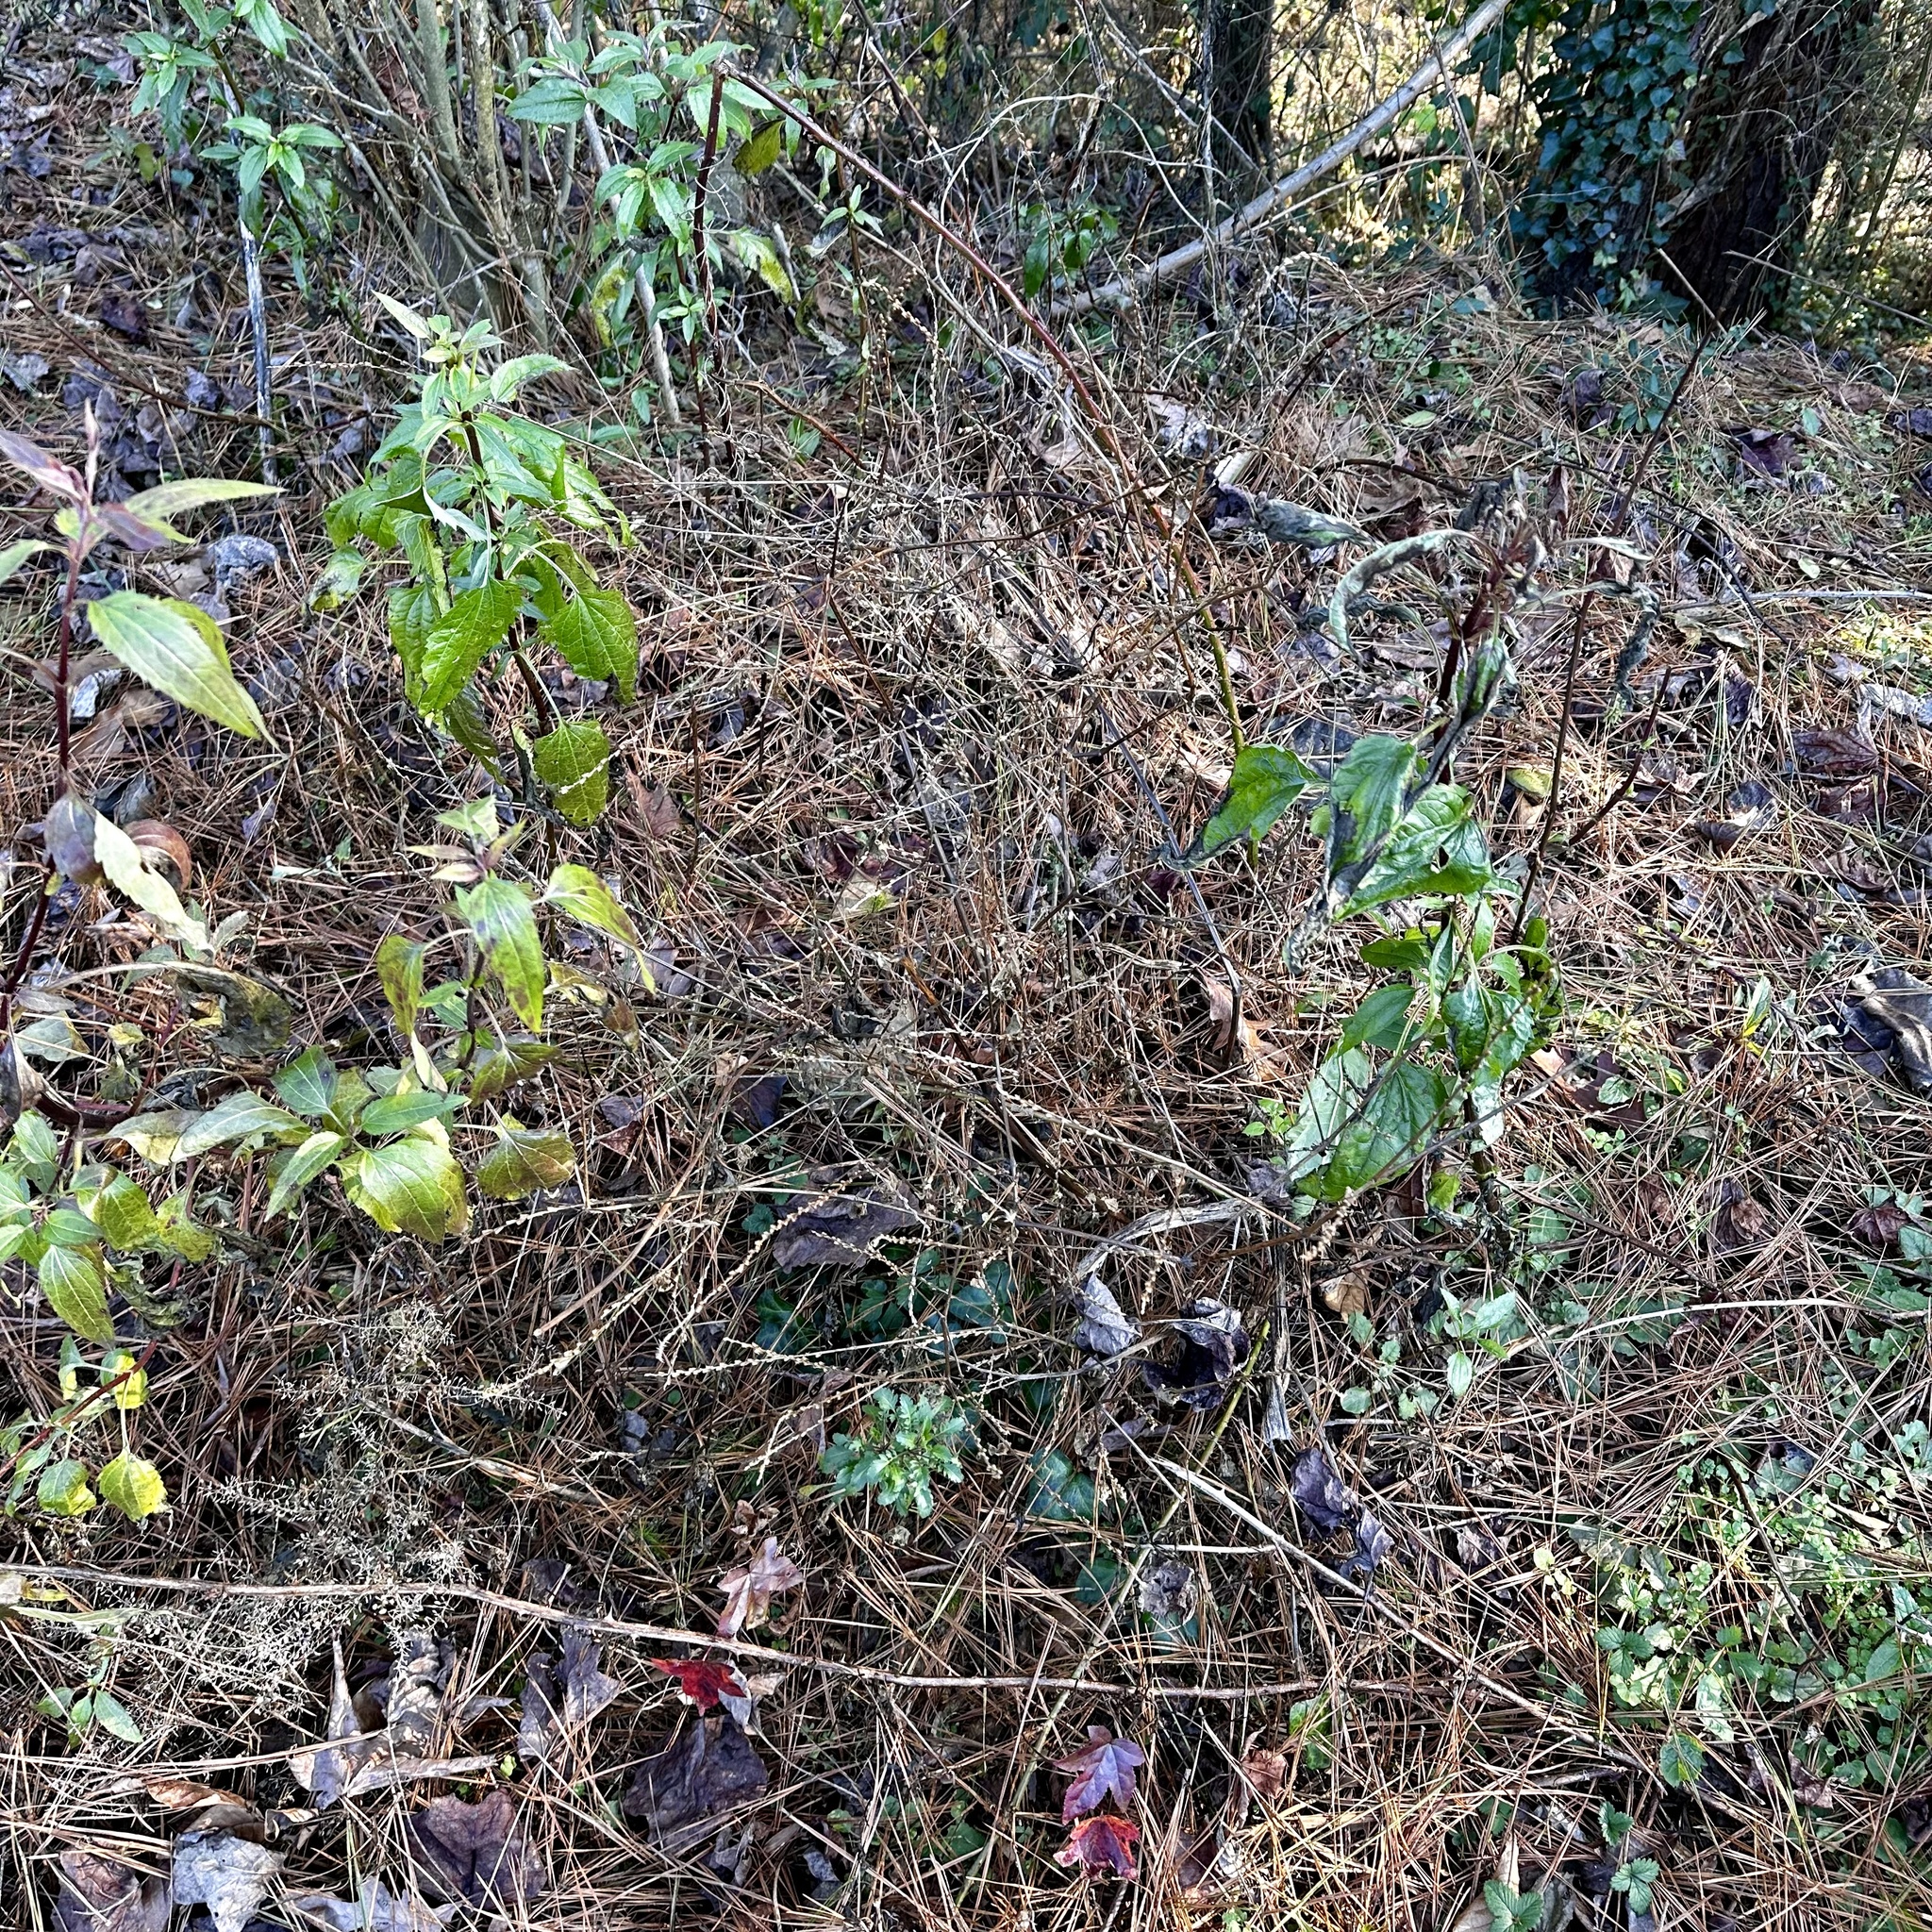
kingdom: Plantae
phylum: Tracheophyta
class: Magnoliopsida
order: Caryophyllales
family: Amaranthaceae
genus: Achyranthes
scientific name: Achyranthes bidentata
